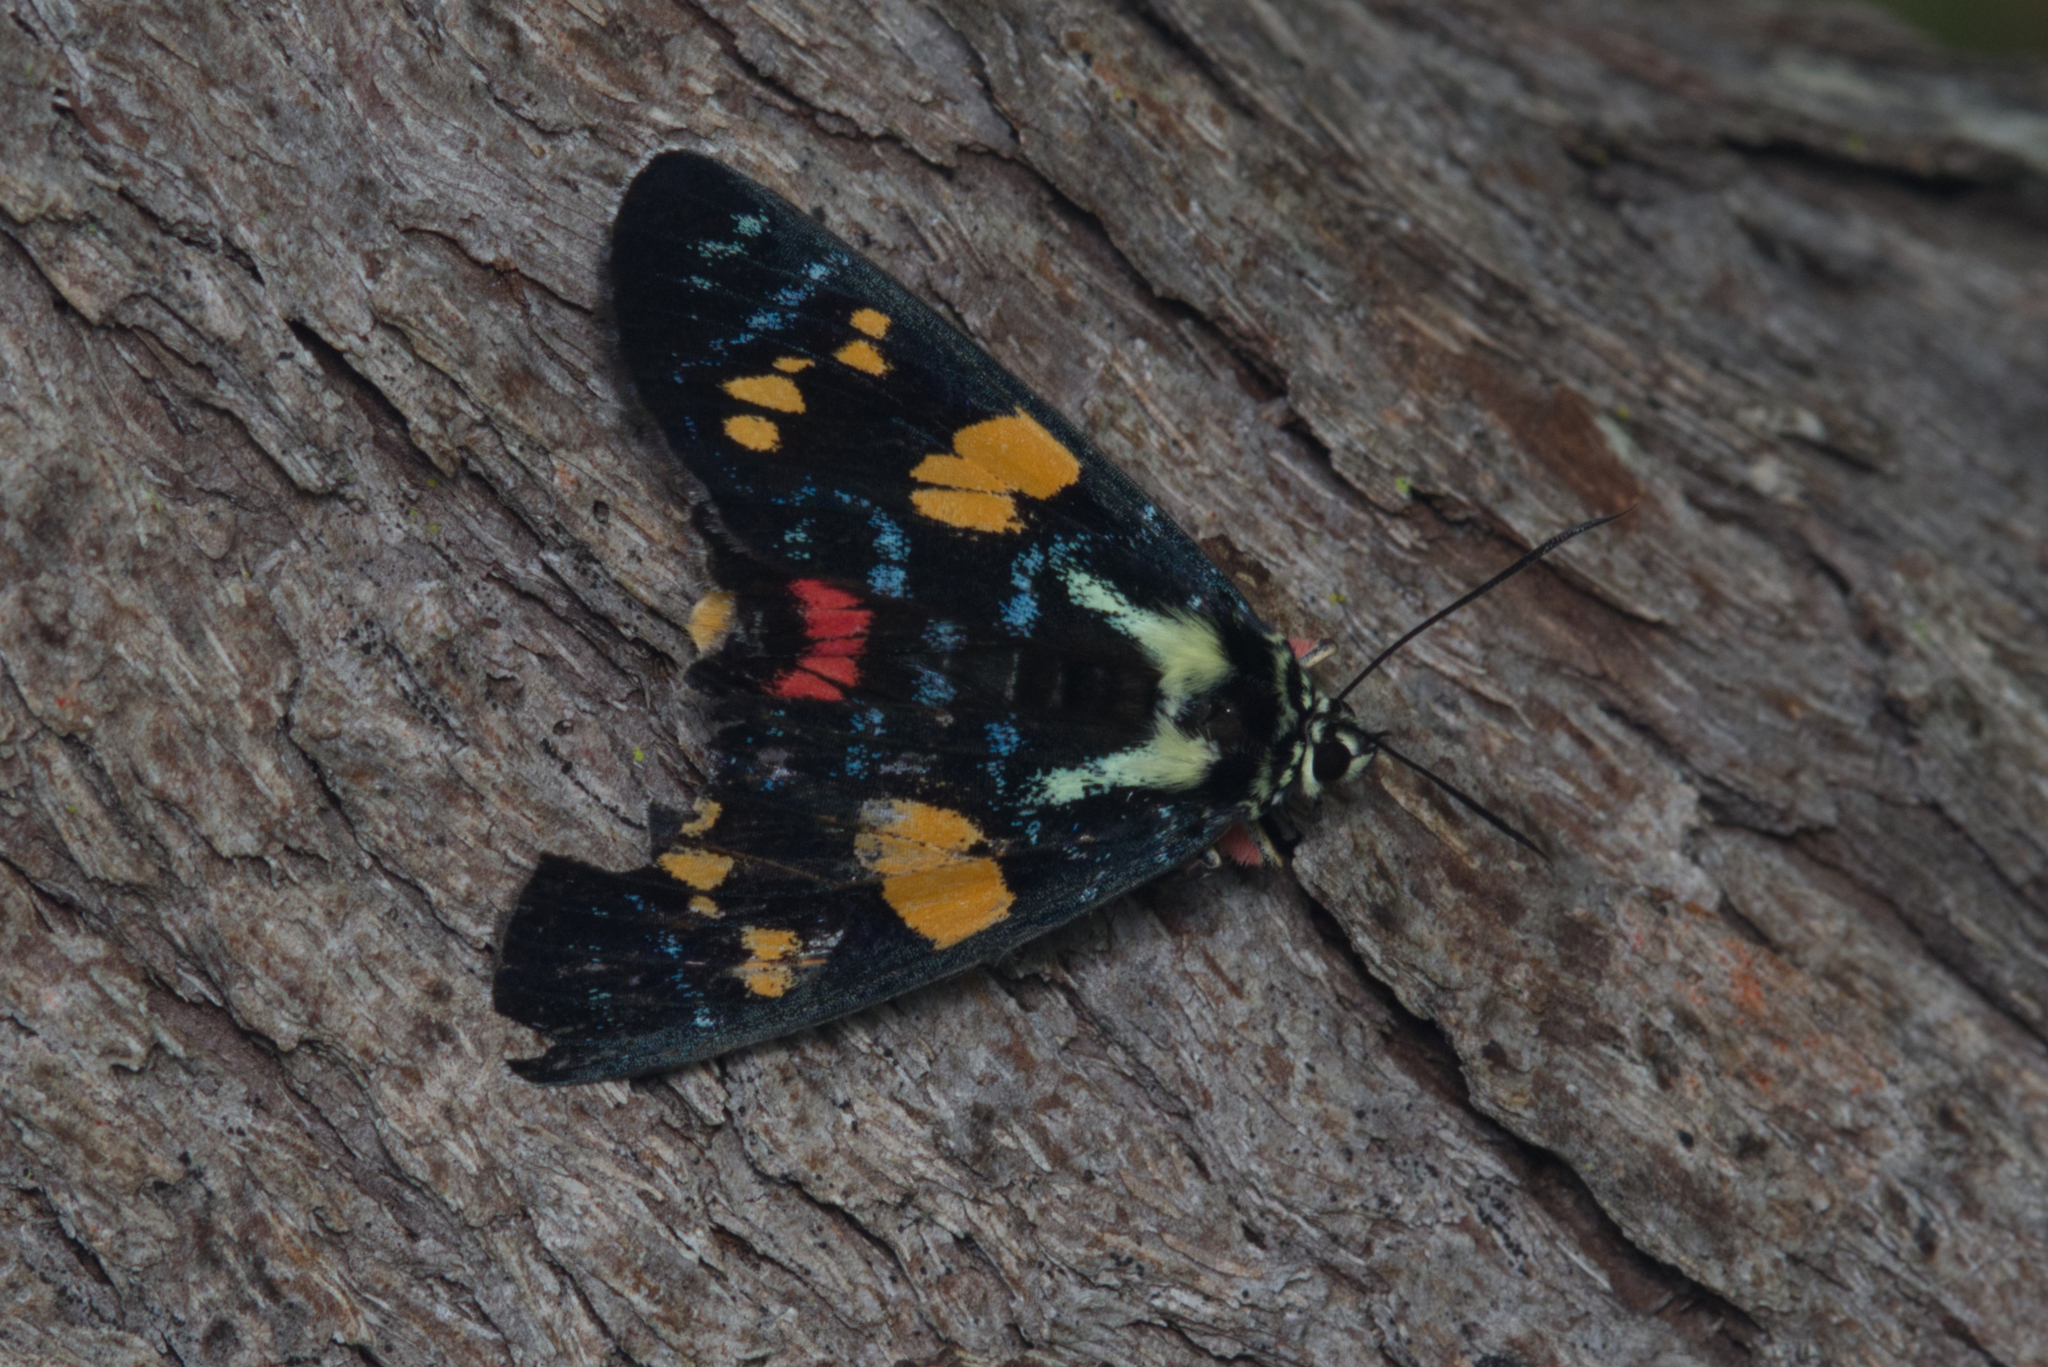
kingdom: Animalia
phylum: Arthropoda
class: Insecta
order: Lepidoptera
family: Noctuidae
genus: Agarista
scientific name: Agarista agricola
